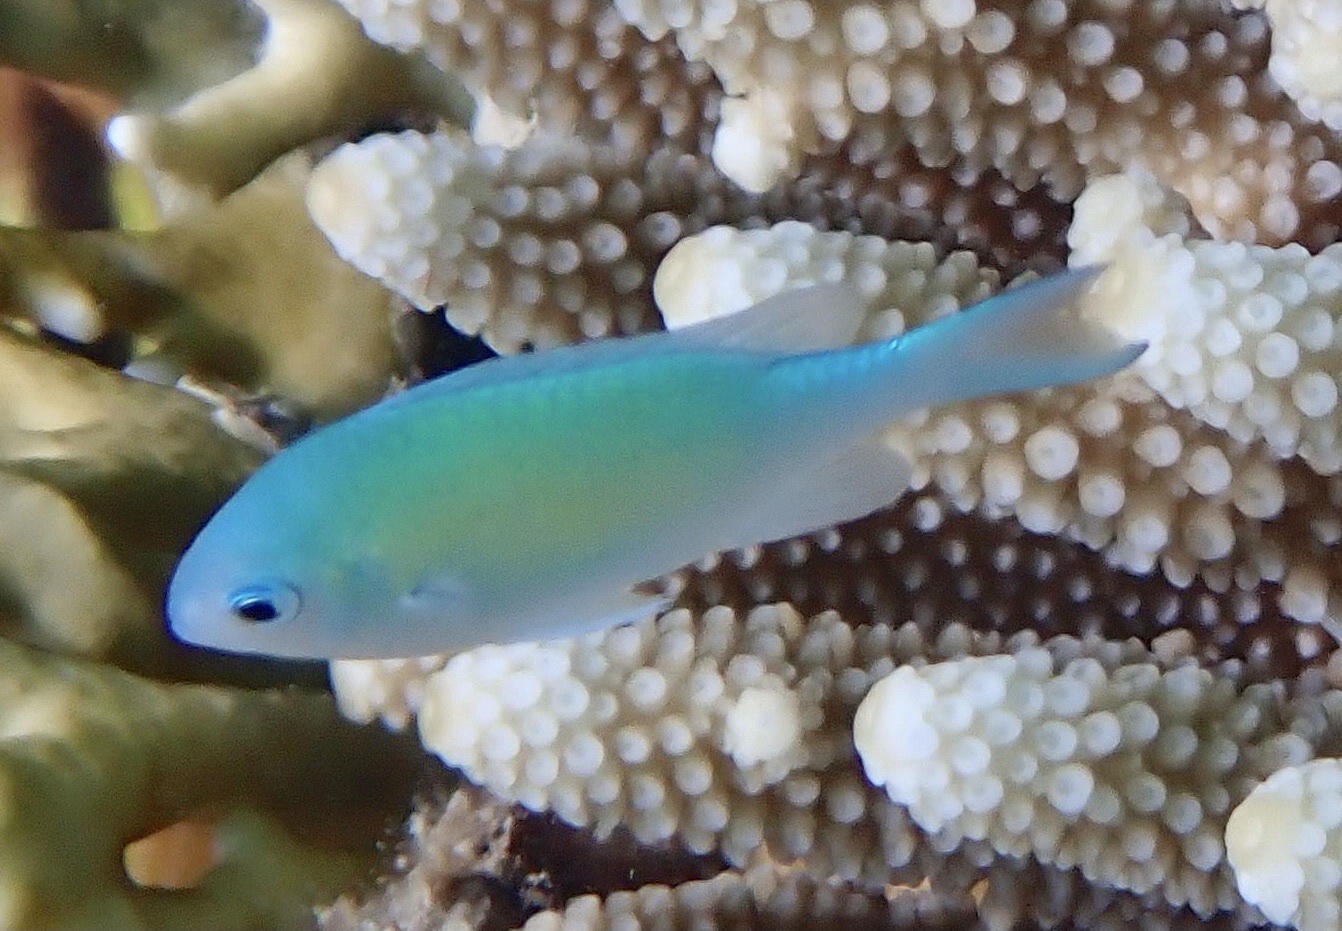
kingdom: Animalia
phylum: Chordata
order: Perciformes
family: Pomacentridae
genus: Chromis
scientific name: Chromis viridis
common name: Blue-green chromis
